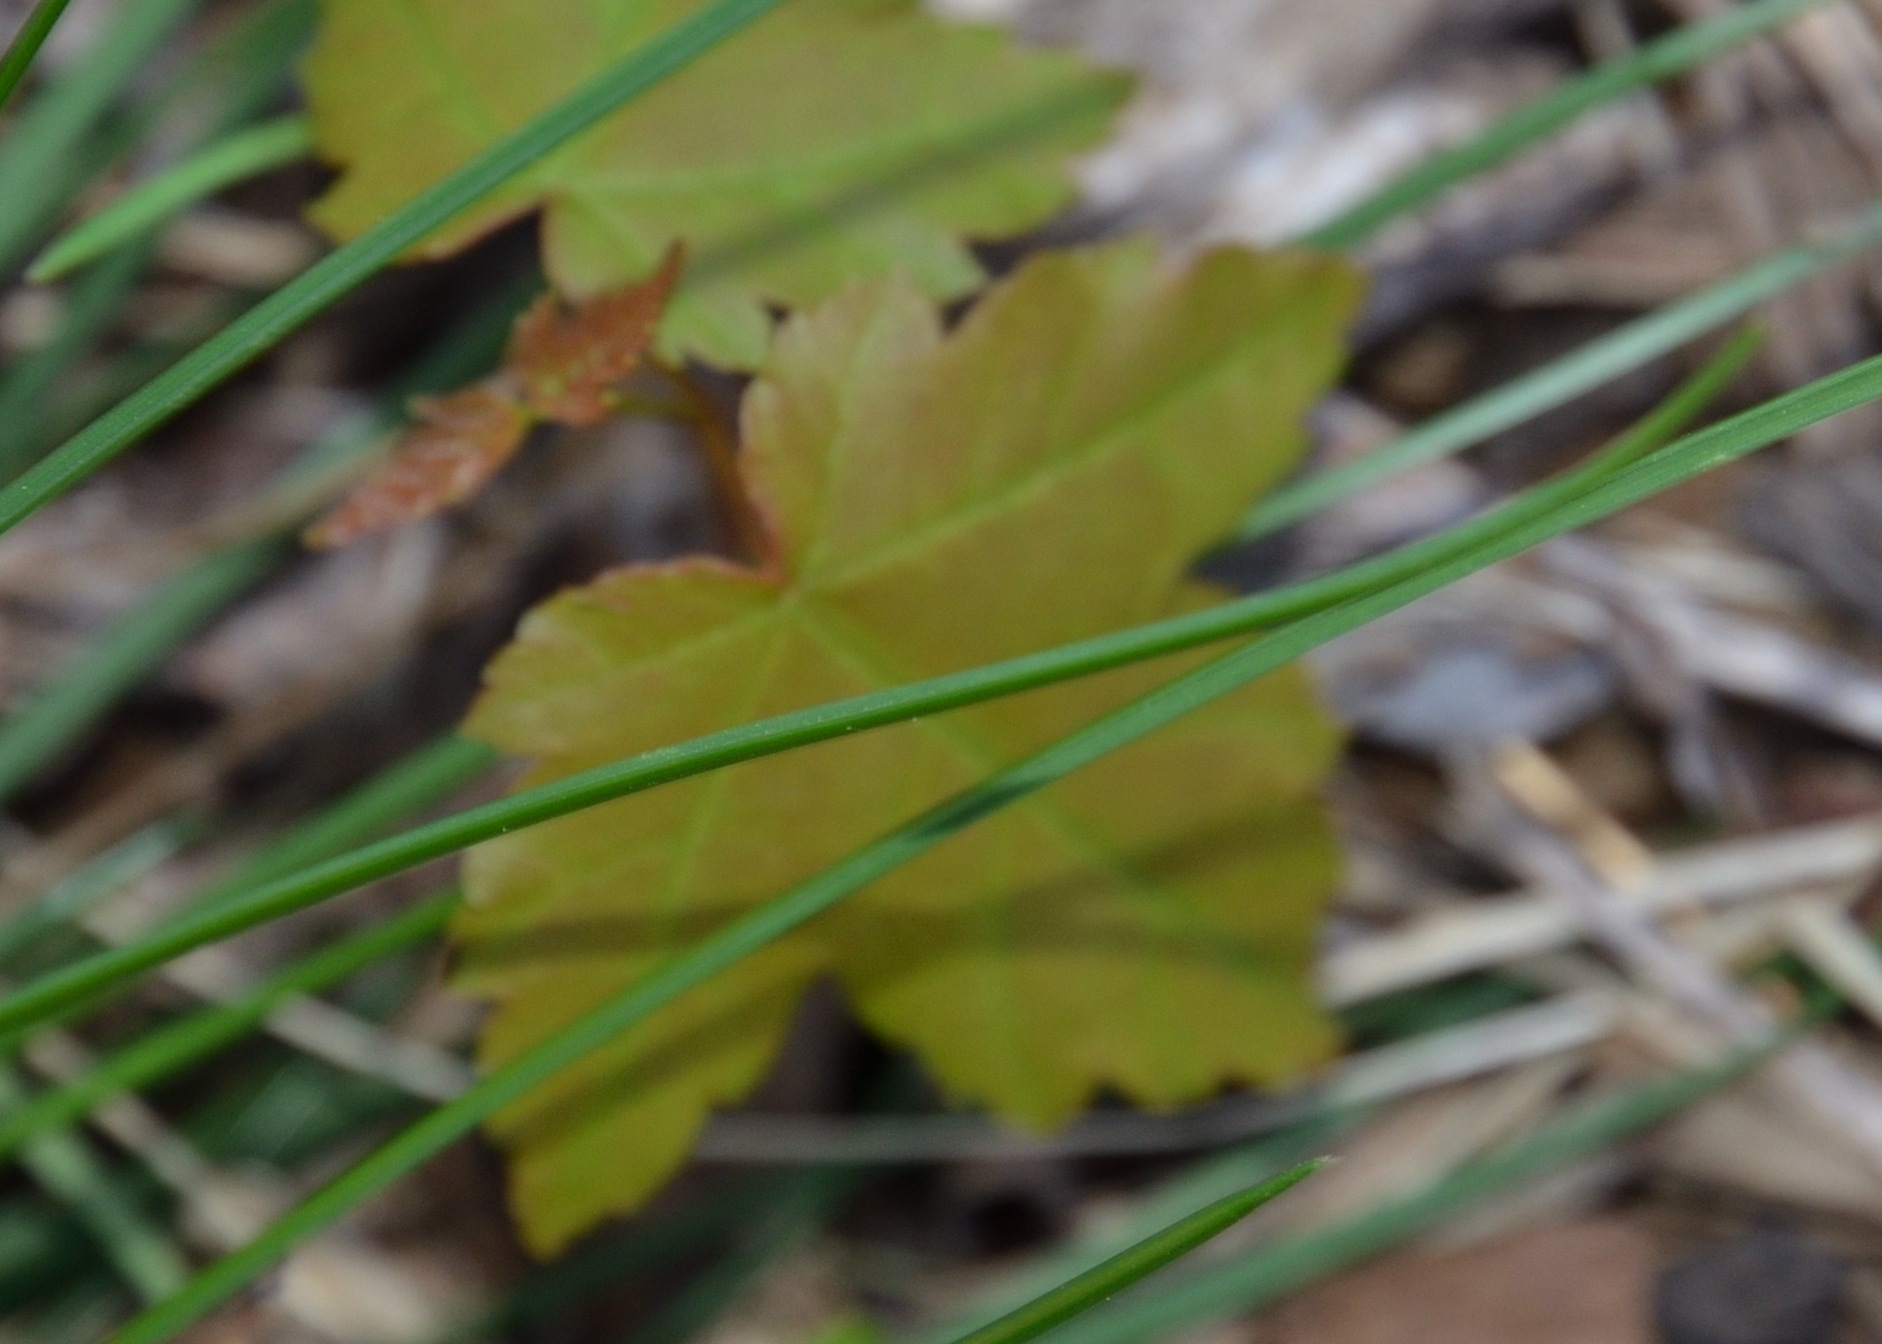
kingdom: Plantae
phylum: Tracheophyta
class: Magnoliopsida
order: Sapindales
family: Sapindaceae
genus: Acer
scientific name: Acer rubrum
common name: Red maple
